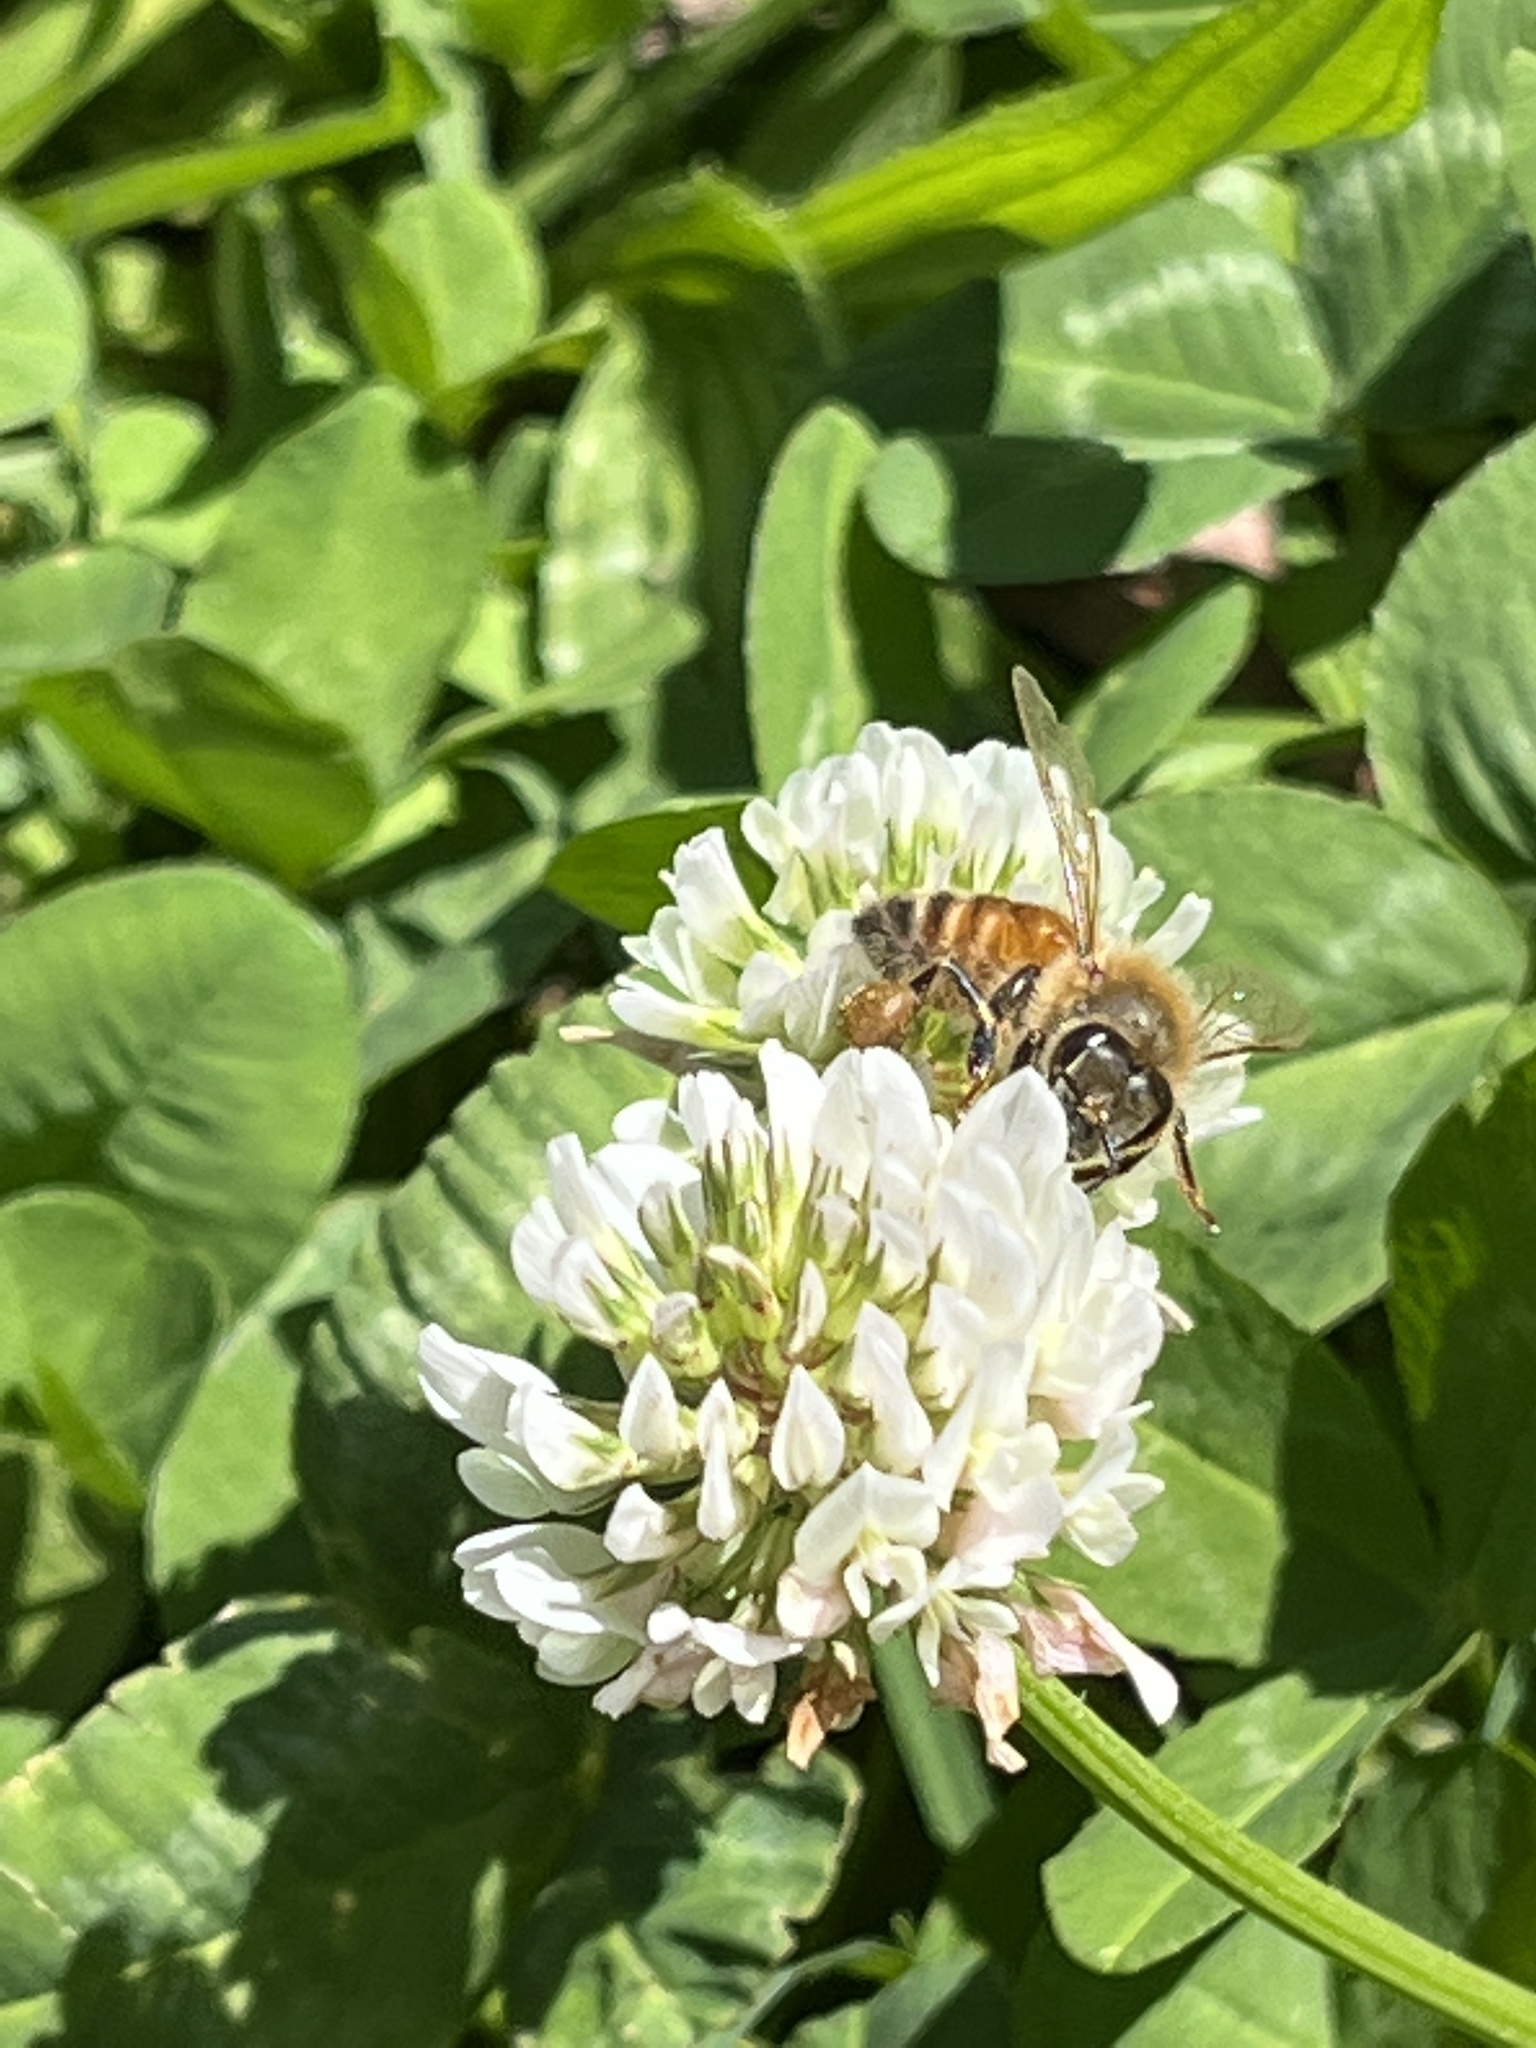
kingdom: Animalia
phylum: Arthropoda
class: Insecta
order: Hymenoptera
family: Apidae
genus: Apis
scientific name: Apis mellifera
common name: Honey bee
